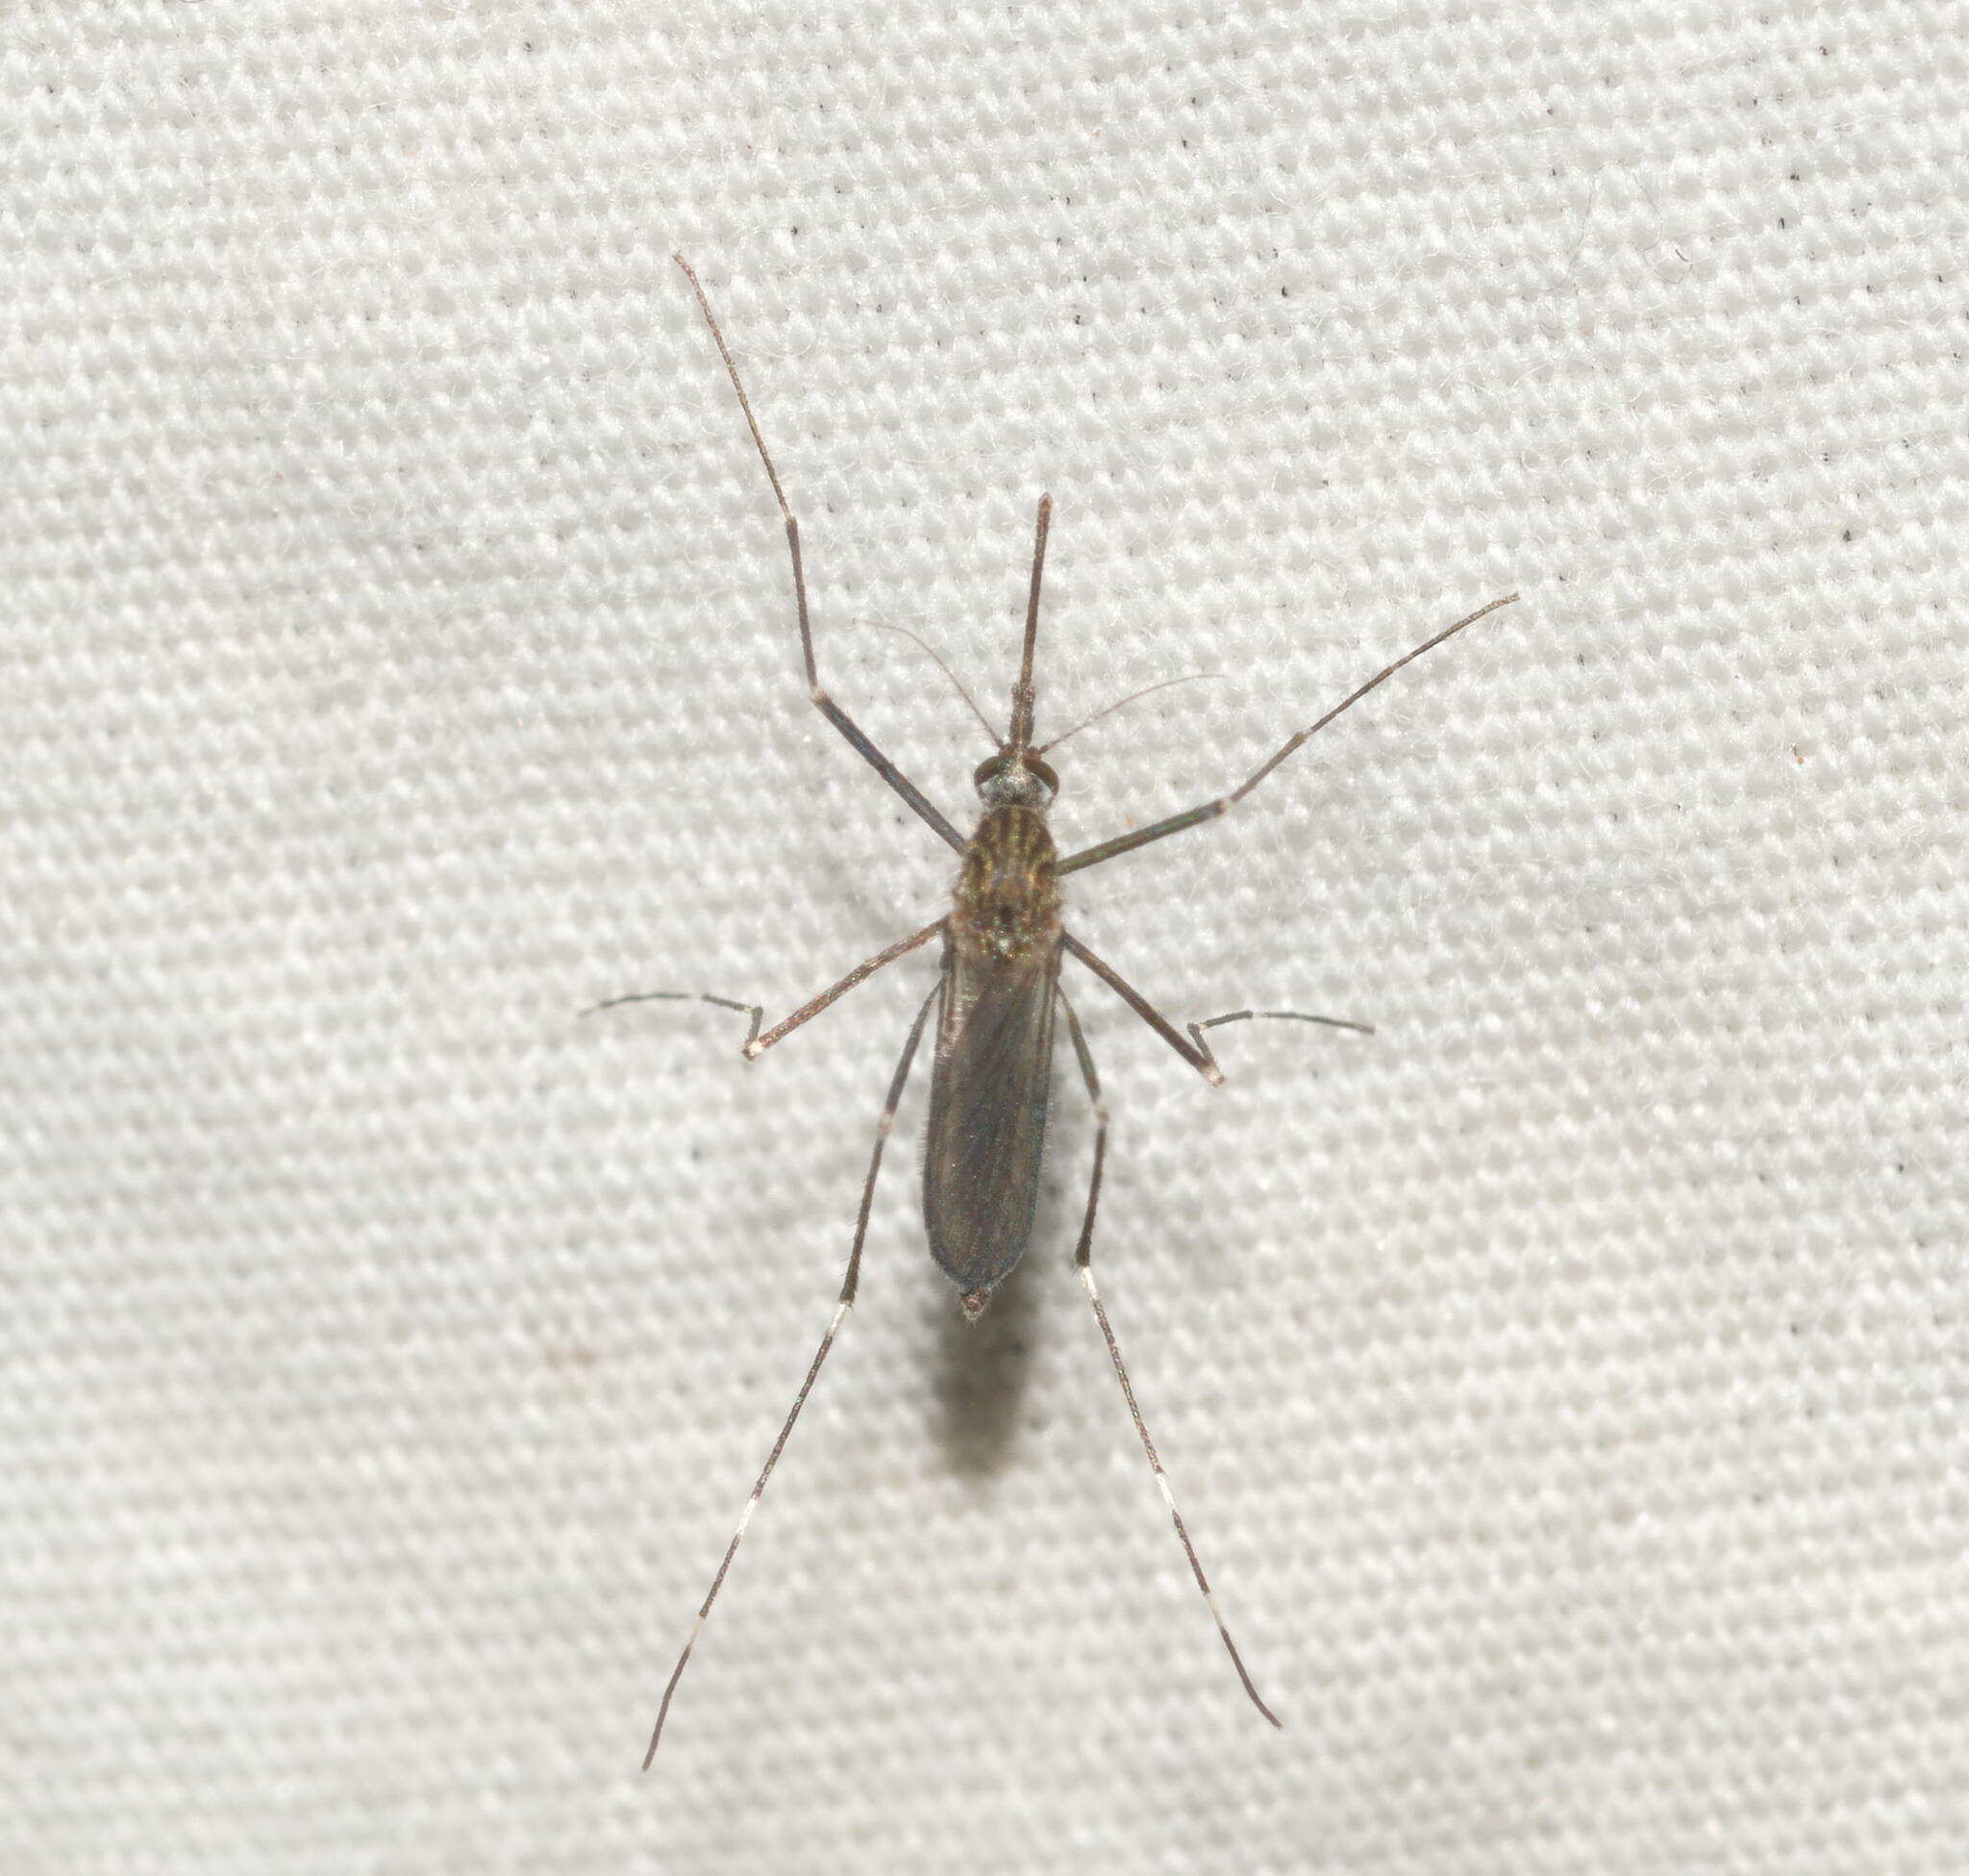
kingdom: Animalia
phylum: Arthropoda
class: Insecta
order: Diptera
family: Culicidae
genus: Aedes
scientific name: Aedes japonicus
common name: Asian bush mosquito
